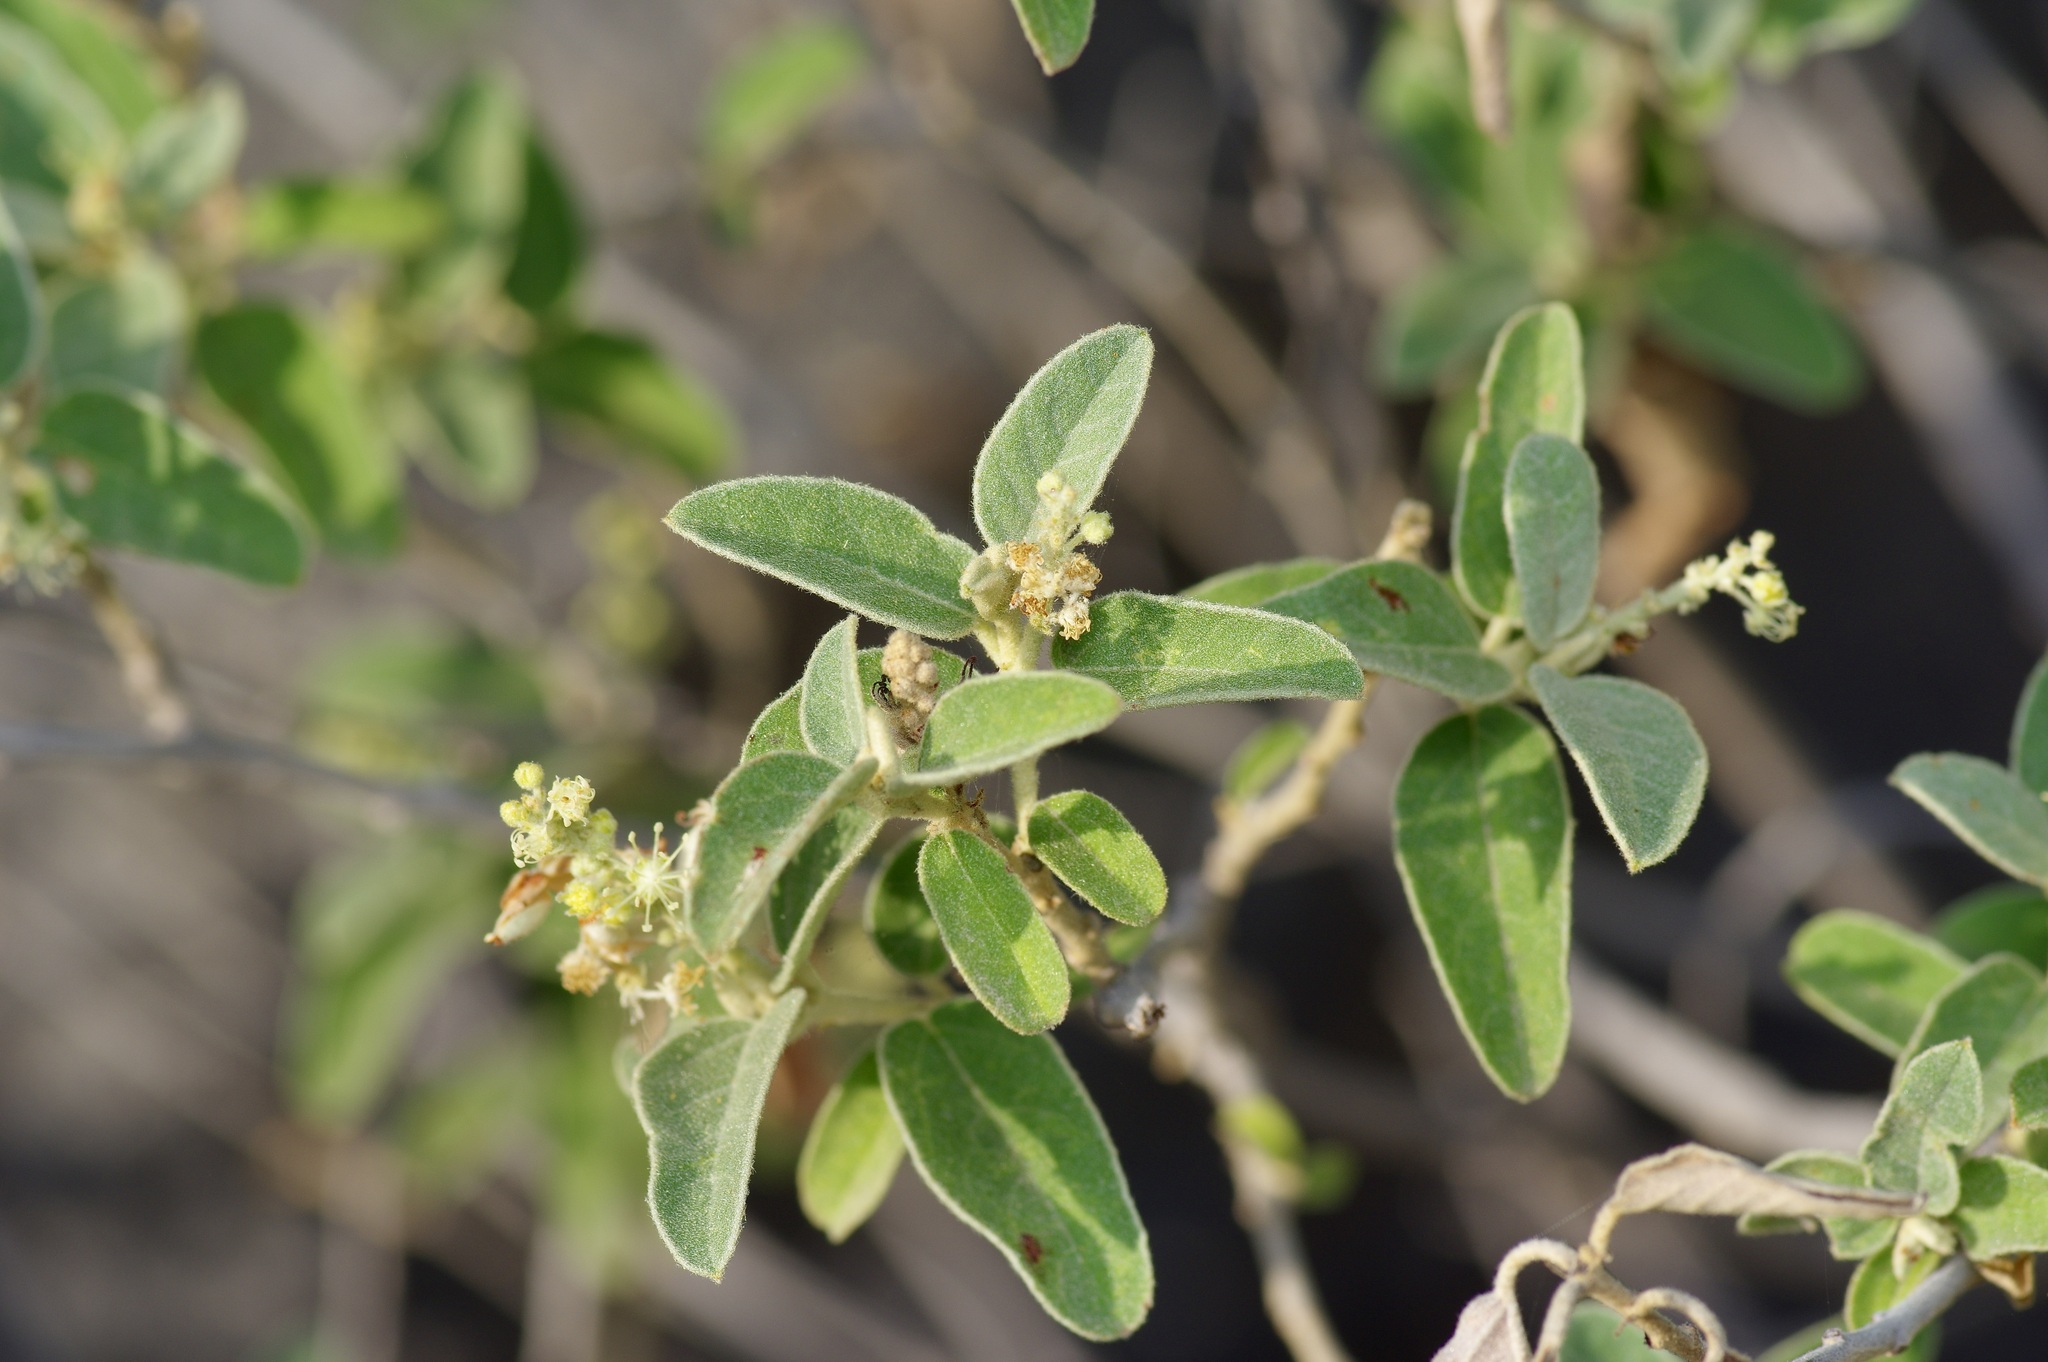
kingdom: Plantae
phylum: Tracheophyta
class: Magnoliopsida
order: Malpighiales
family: Euphorbiaceae
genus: Croton
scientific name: Croton incanus
